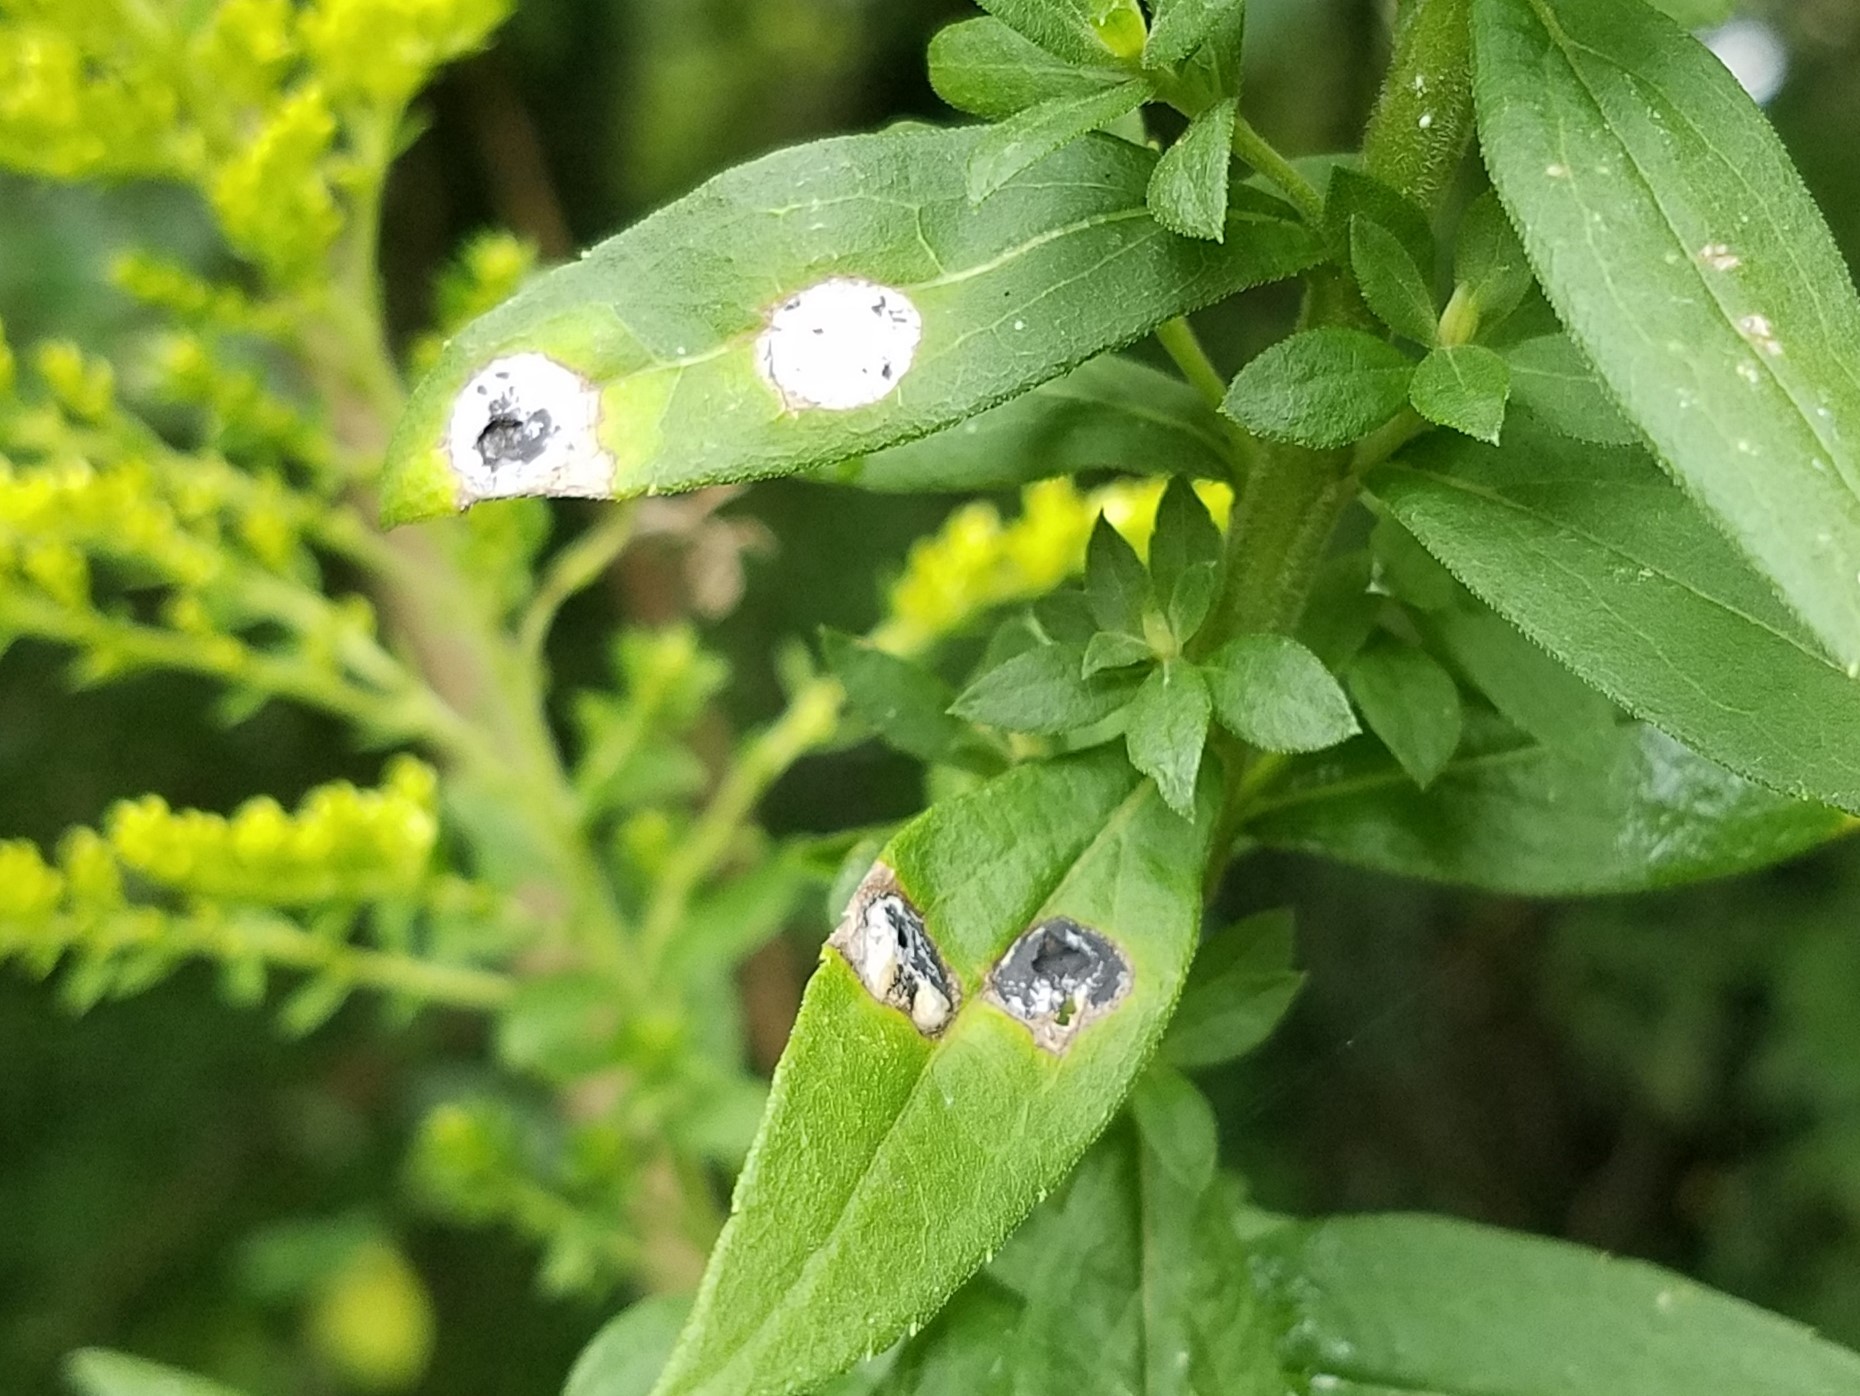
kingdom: Animalia
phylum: Arthropoda
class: Insecta
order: Diptera
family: Cecidomyiidae
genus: Asteromyia
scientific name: Asteromyia carbonifera
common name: Carbonifera goldenrod gall midge
